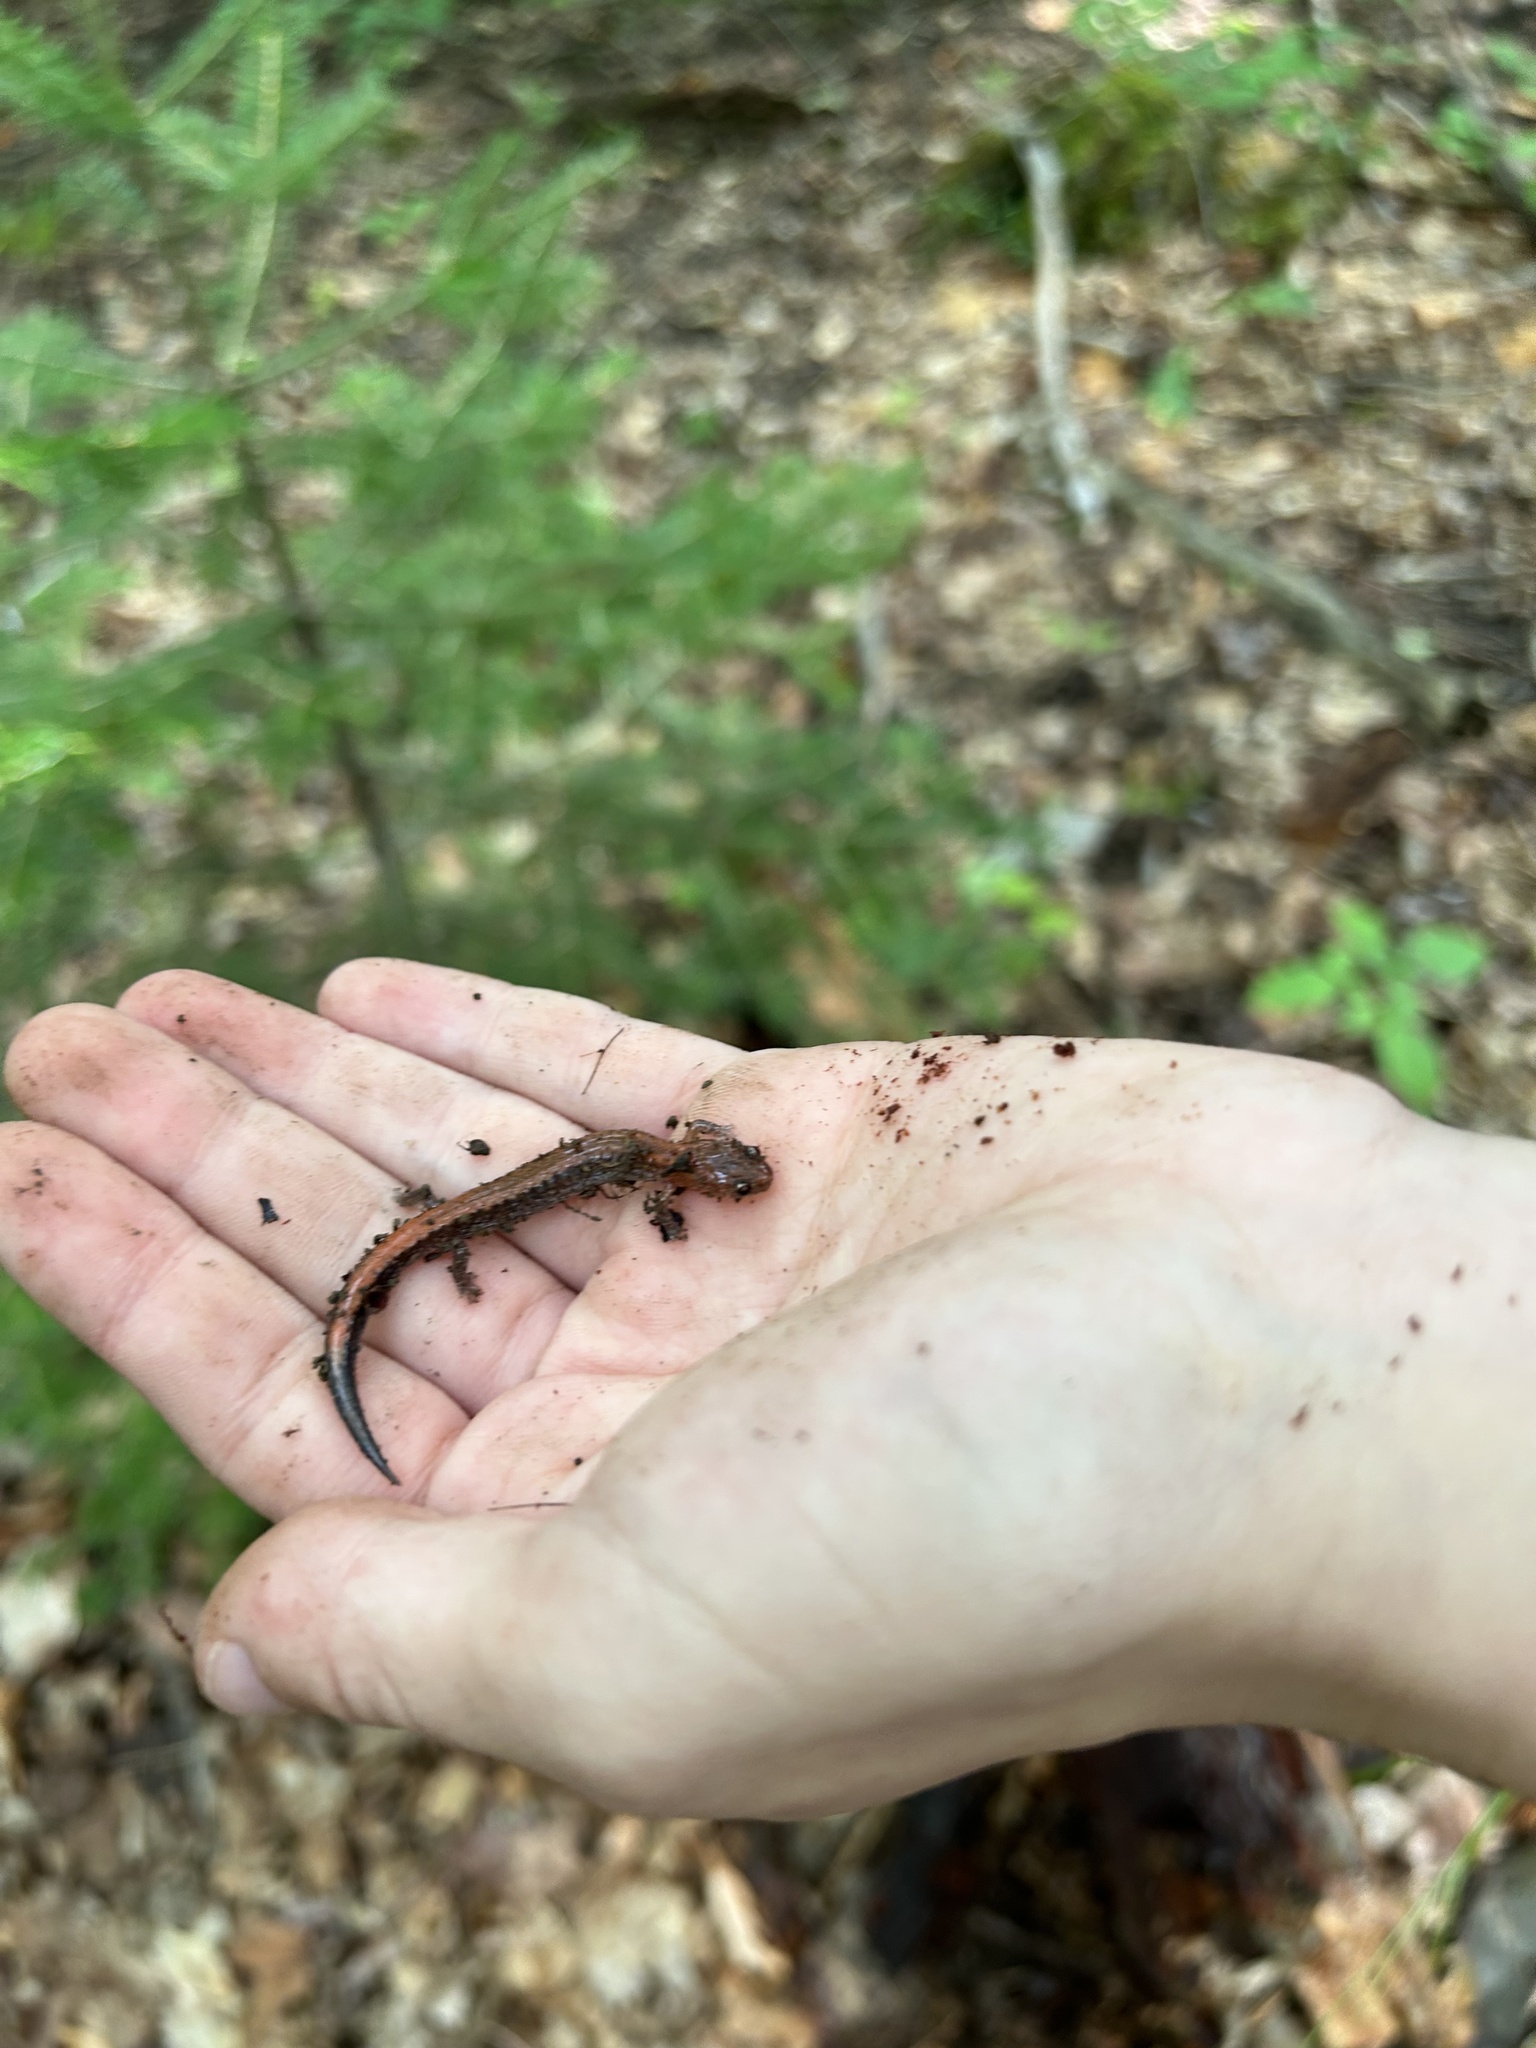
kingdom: Animalia
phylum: Chordata
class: Amphibia
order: Caudata
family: Plethodontidae
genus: Plethodon
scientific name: Plethodon cinereus
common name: Redback salamander
